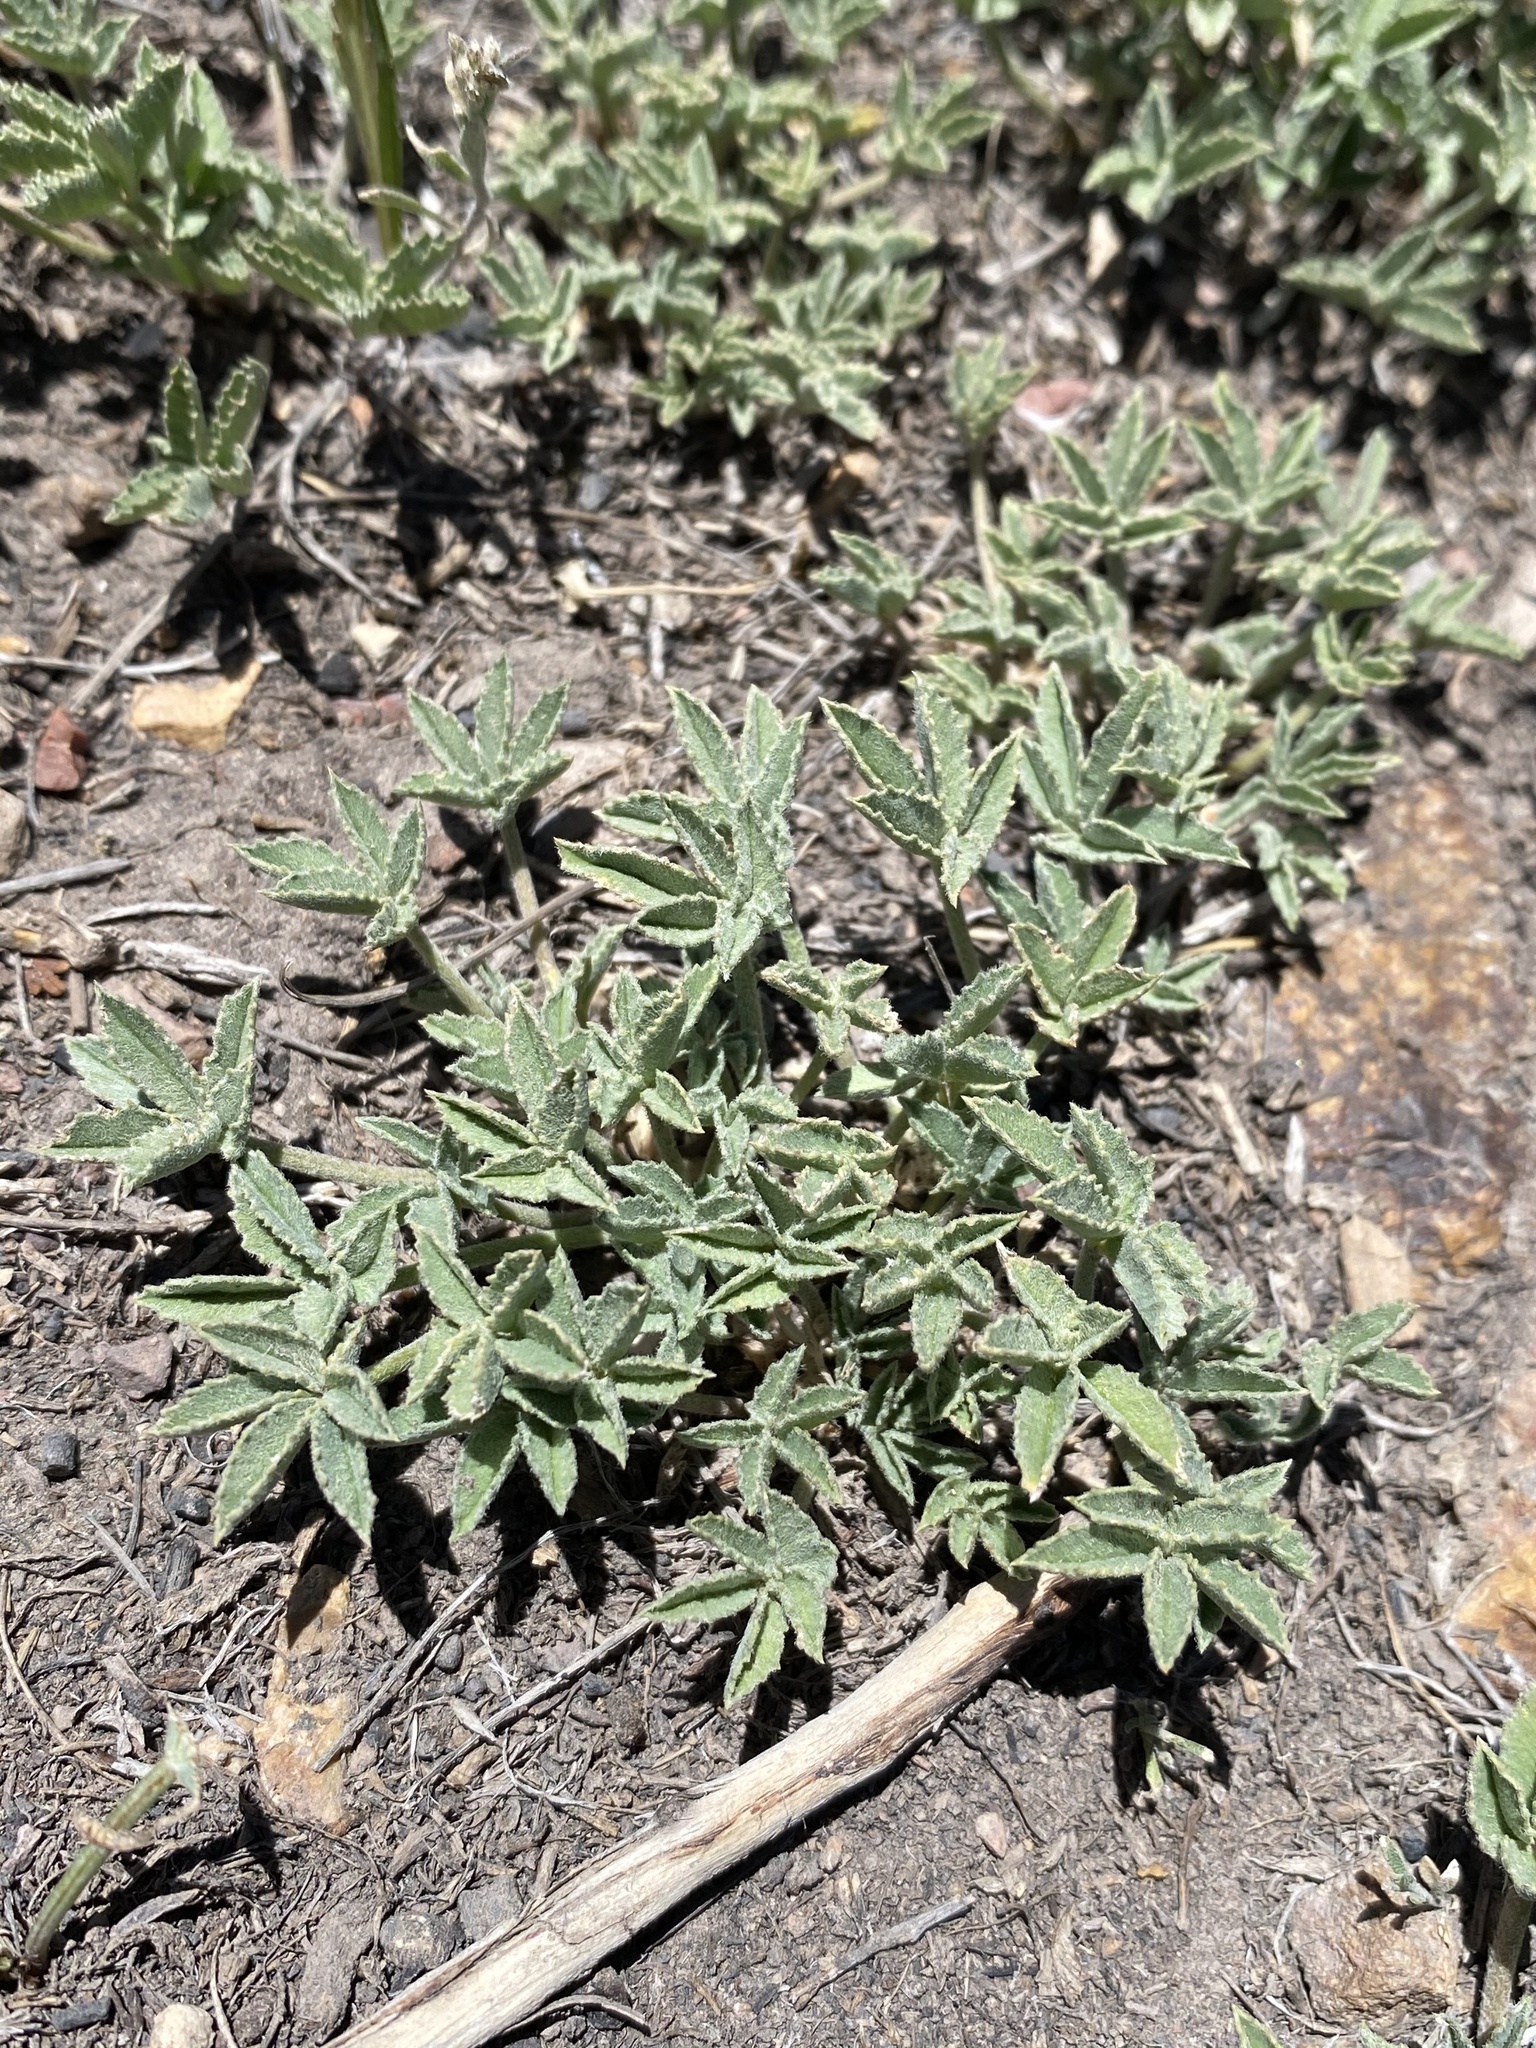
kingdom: Plantae
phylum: Tracheophyta
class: Magnoliopsida
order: Fabales
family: Fabaceae
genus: Trifolium
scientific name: Trifolium gymnocarpon
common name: Tufted clover
